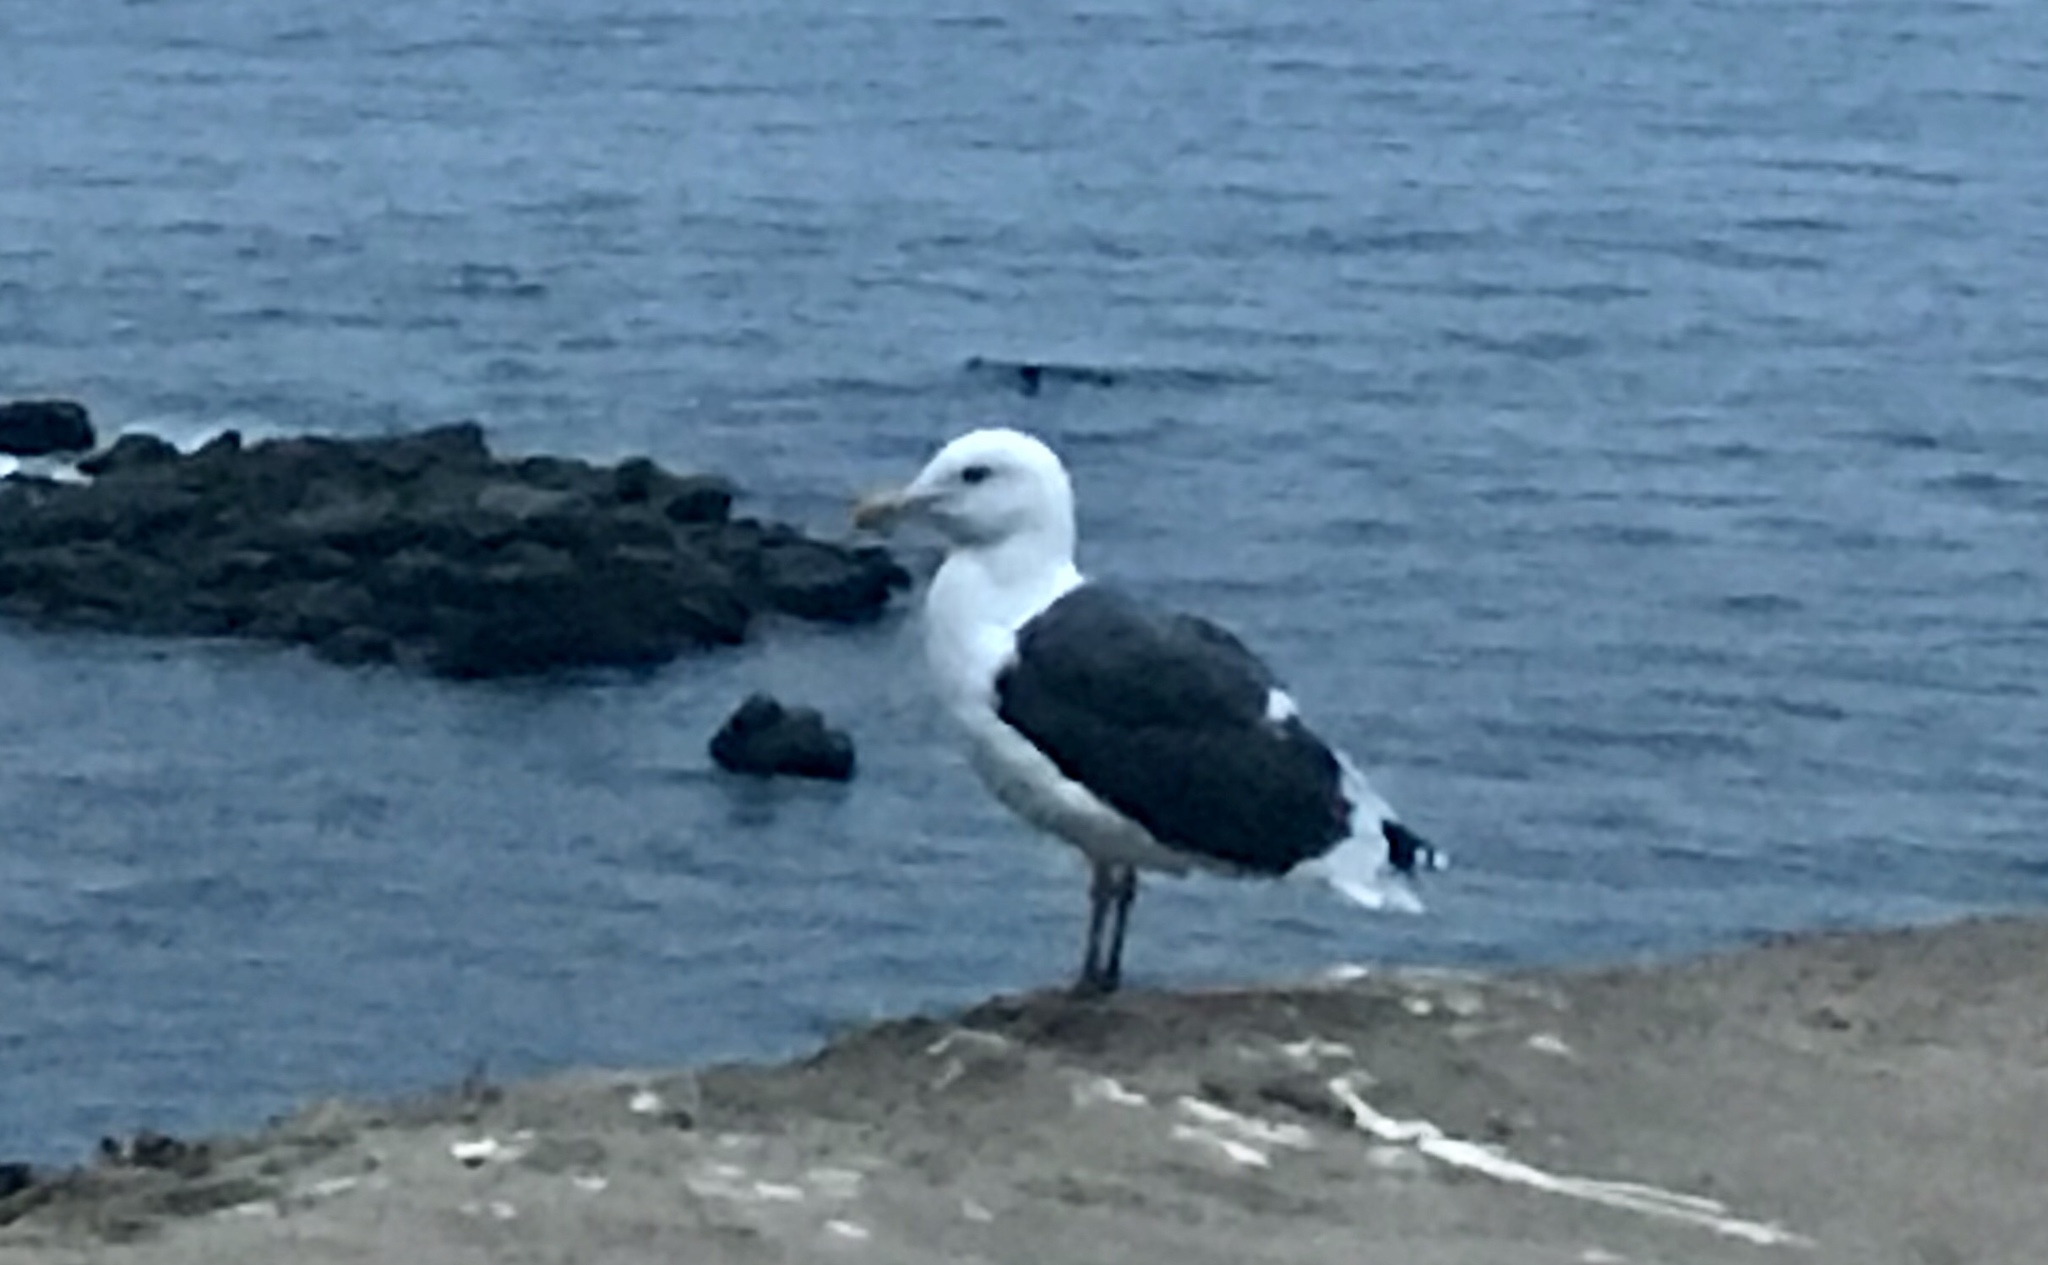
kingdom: Animalia
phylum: Chordata
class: Aves
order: Charadriiformes
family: Laridae
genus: Larus
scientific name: Larus occidentalis
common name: Western gull
